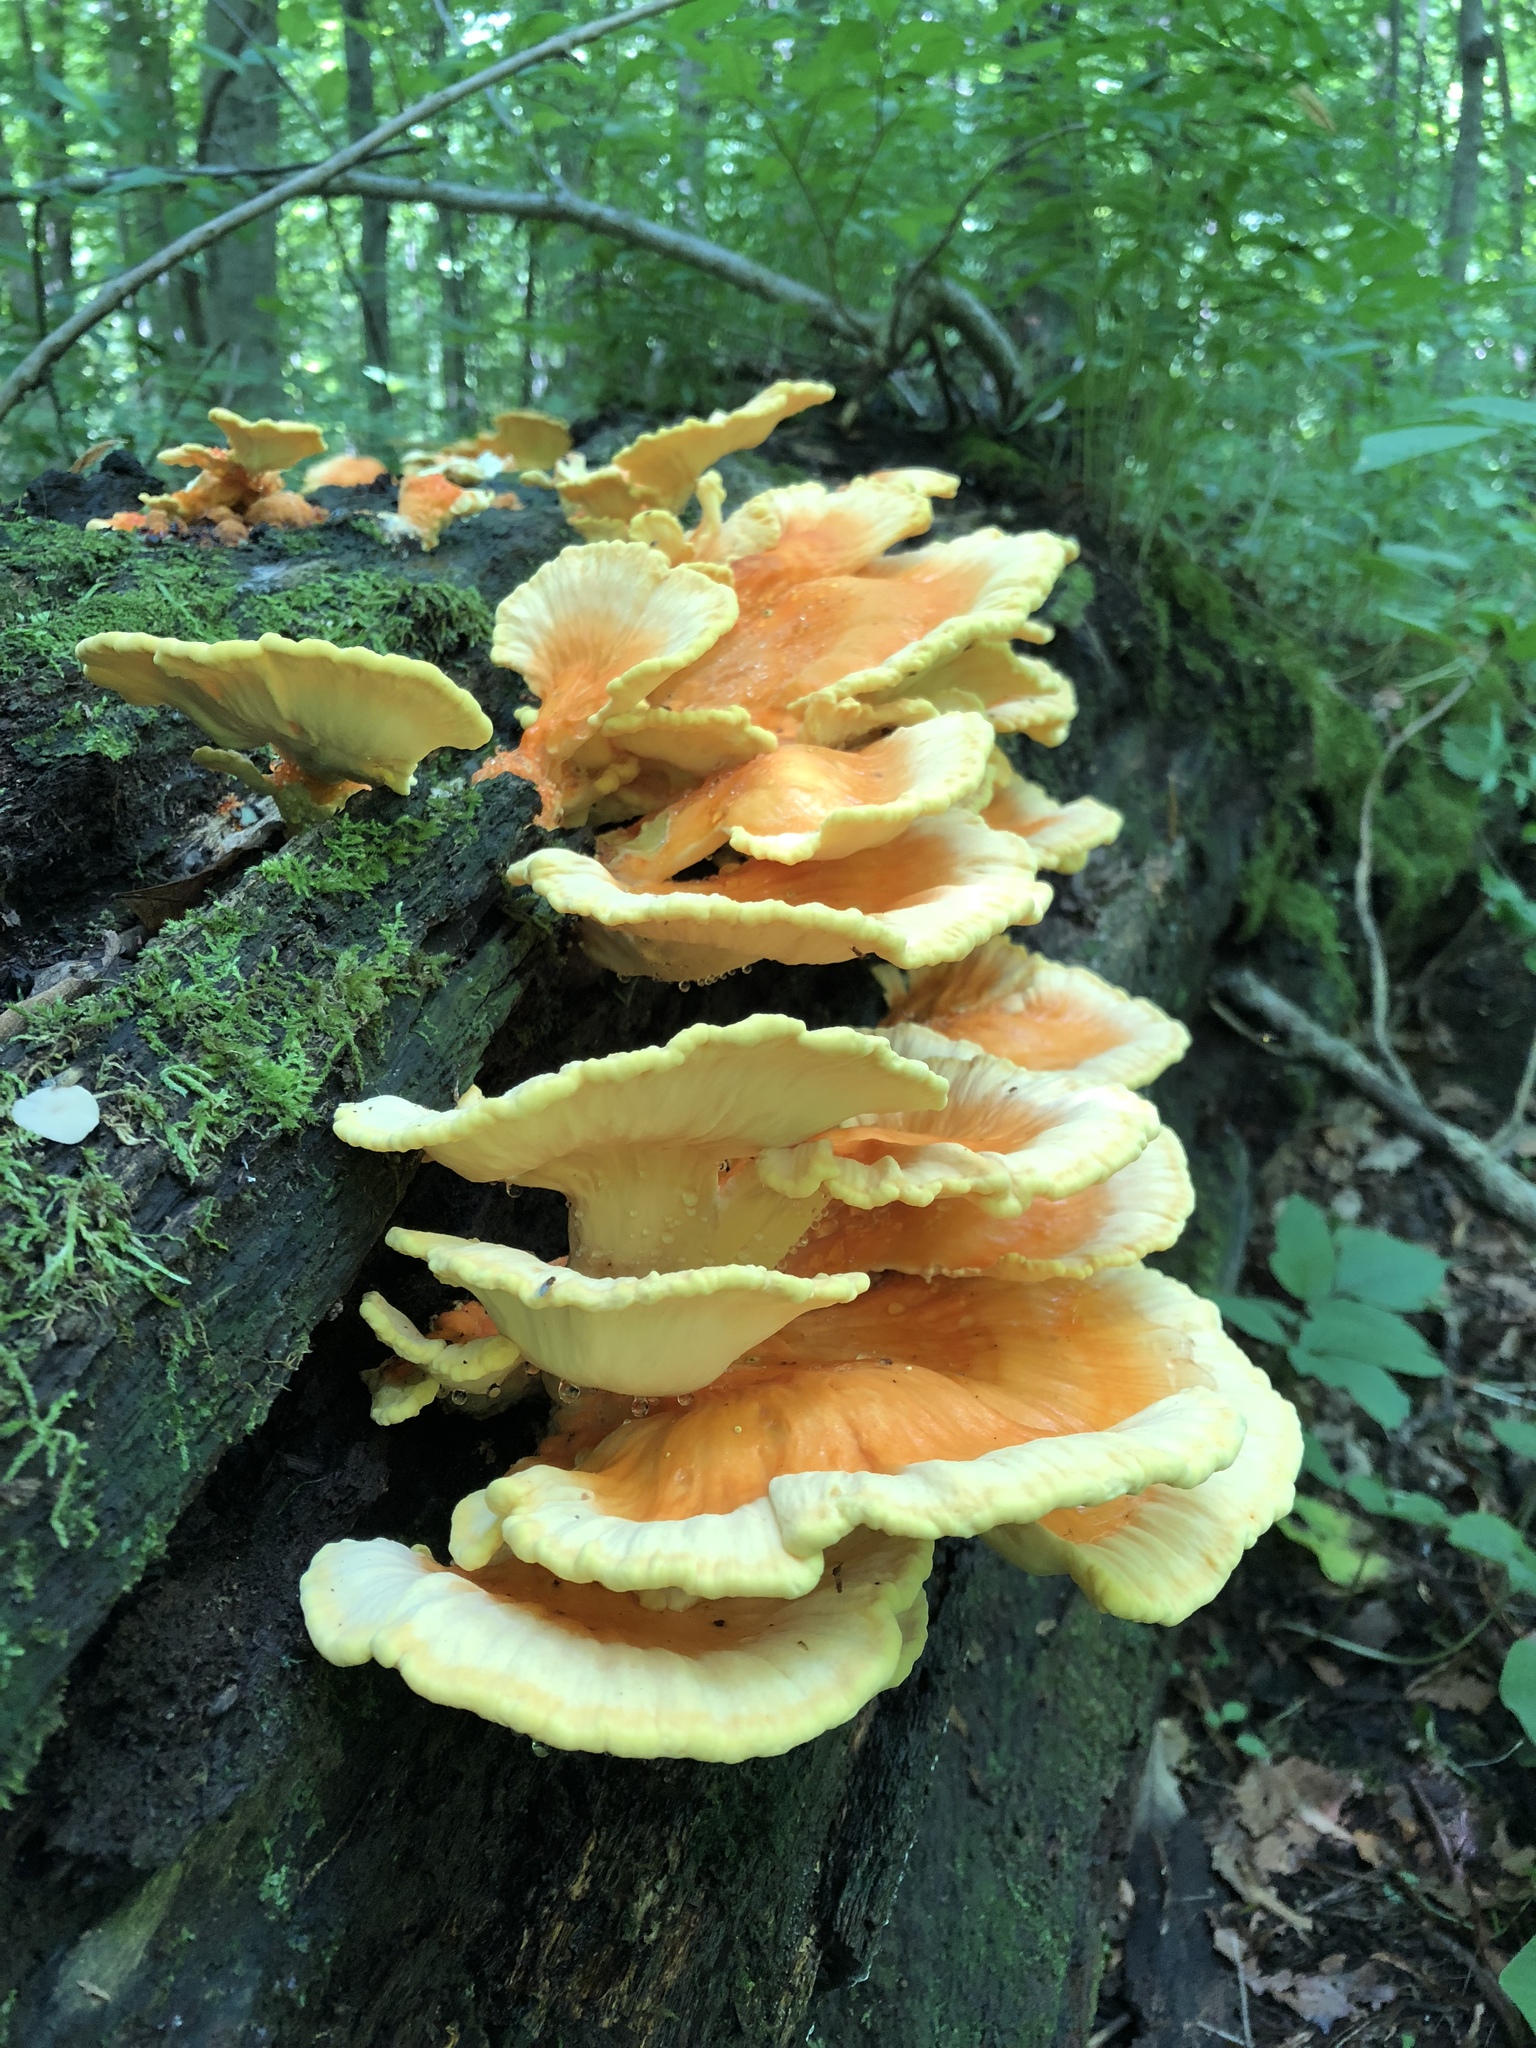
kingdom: Fungi
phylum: Basidiomycota
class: Agaricomycetes
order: Polyporales
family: Laetiporaceae
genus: Laetiporus
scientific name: Laetiporus sulphureus
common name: Chicken of the woods
